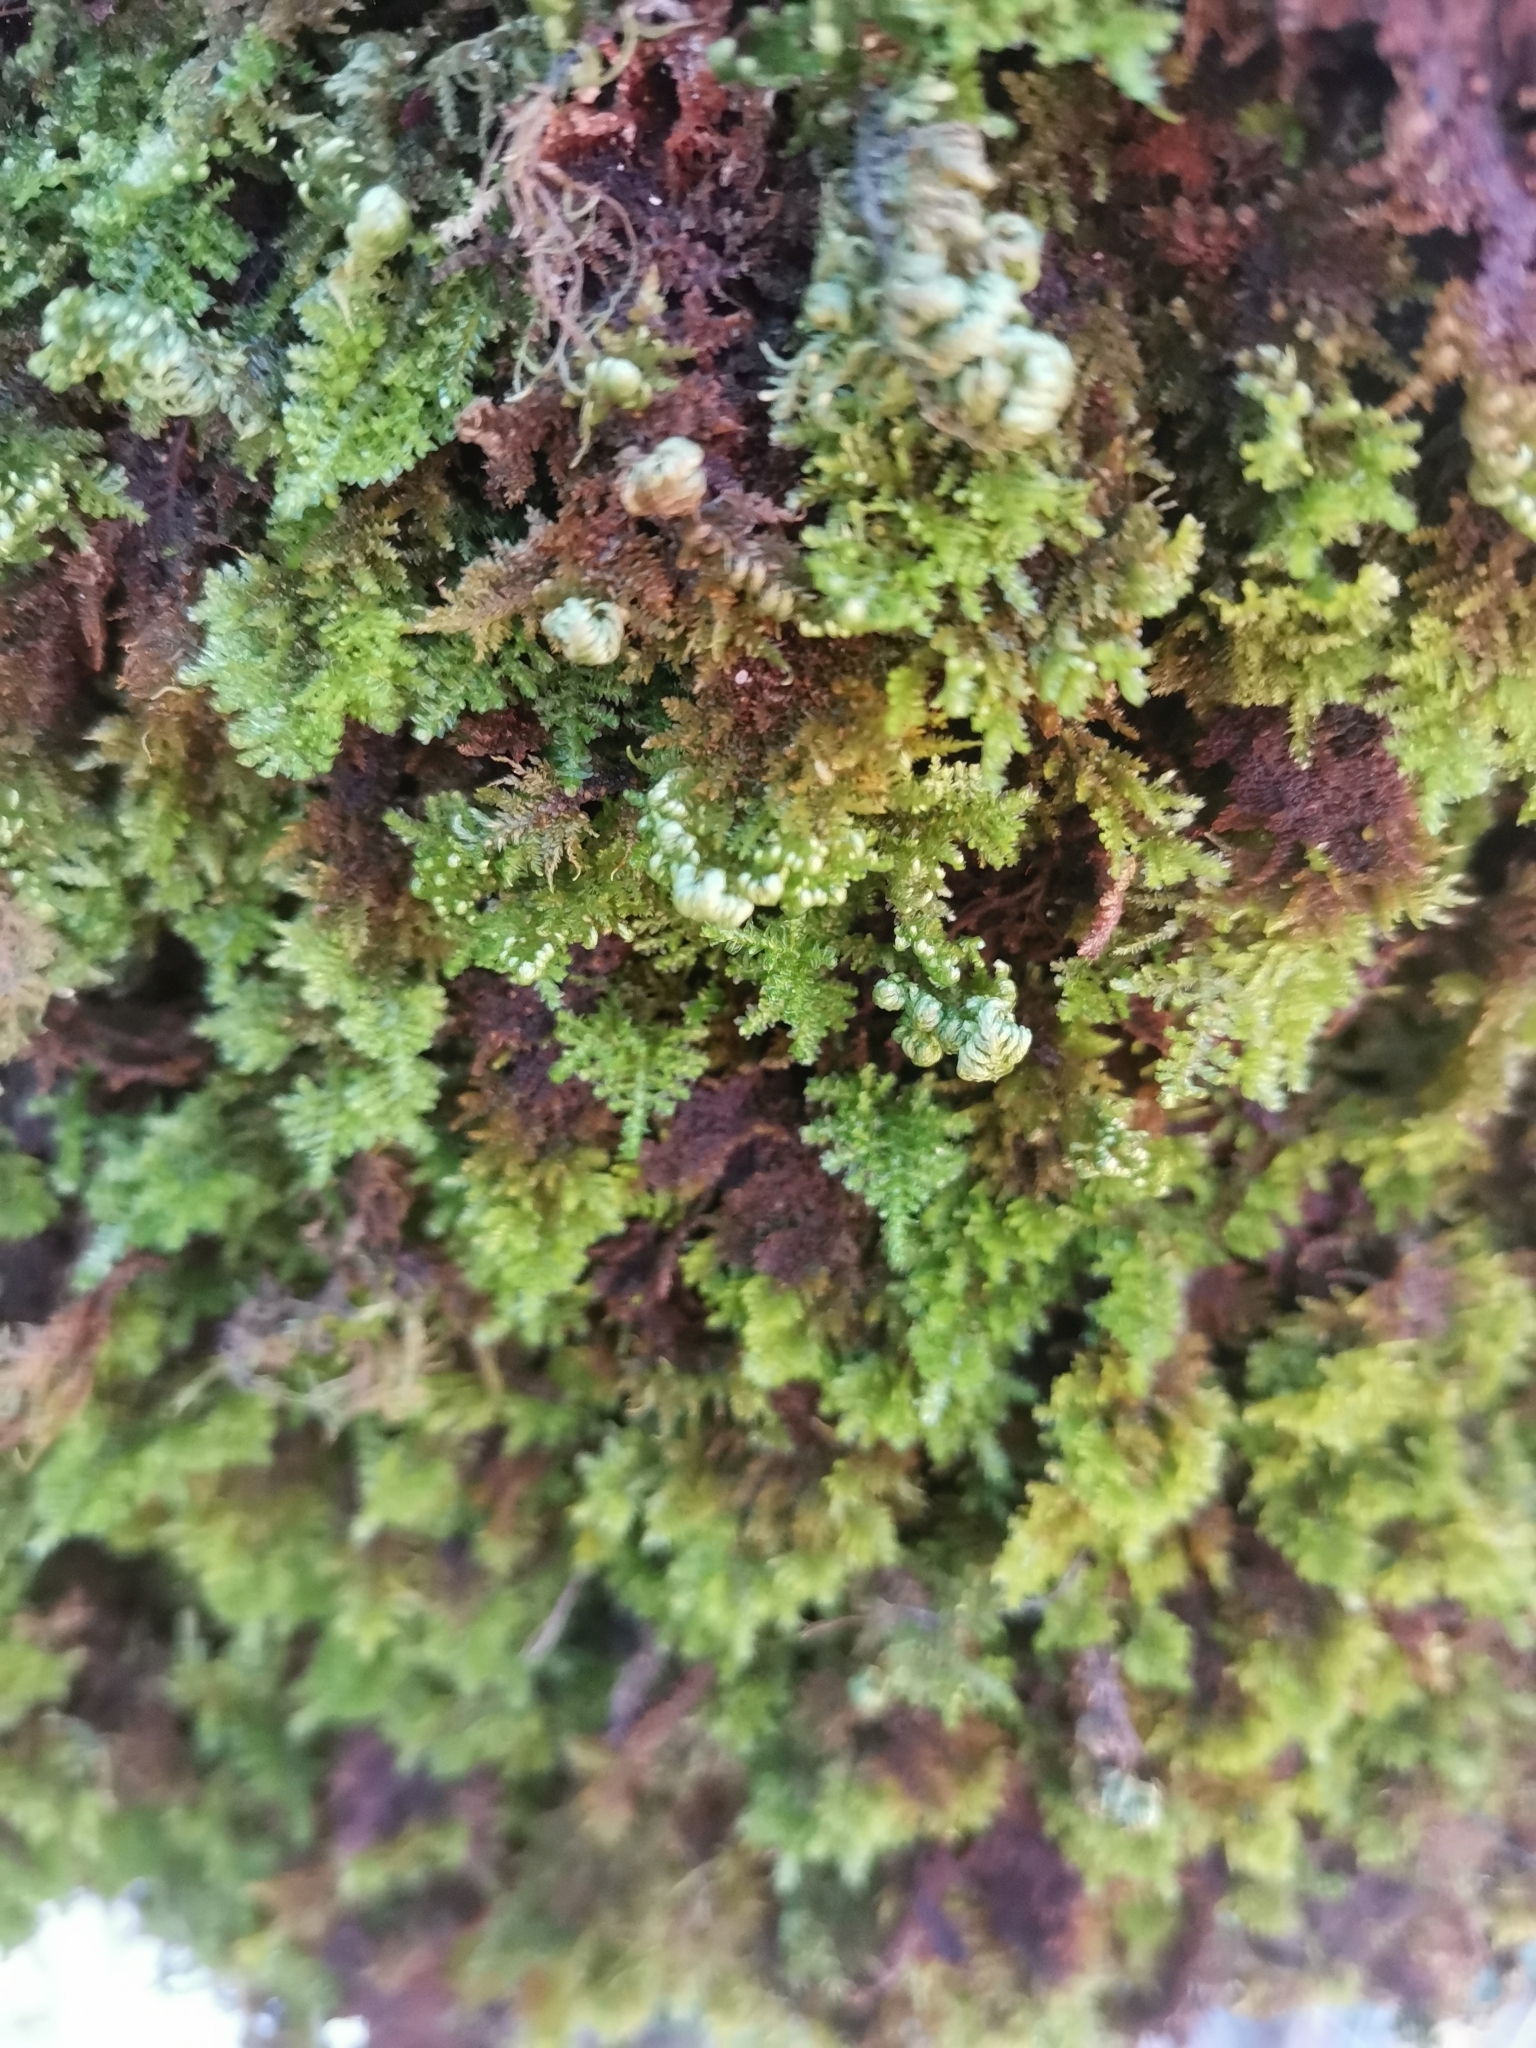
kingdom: Plantae
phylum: Bryophyta
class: Bryopsida
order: Hypnales
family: Neckeraceae
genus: Leptodon
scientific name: Leptodon smithii
